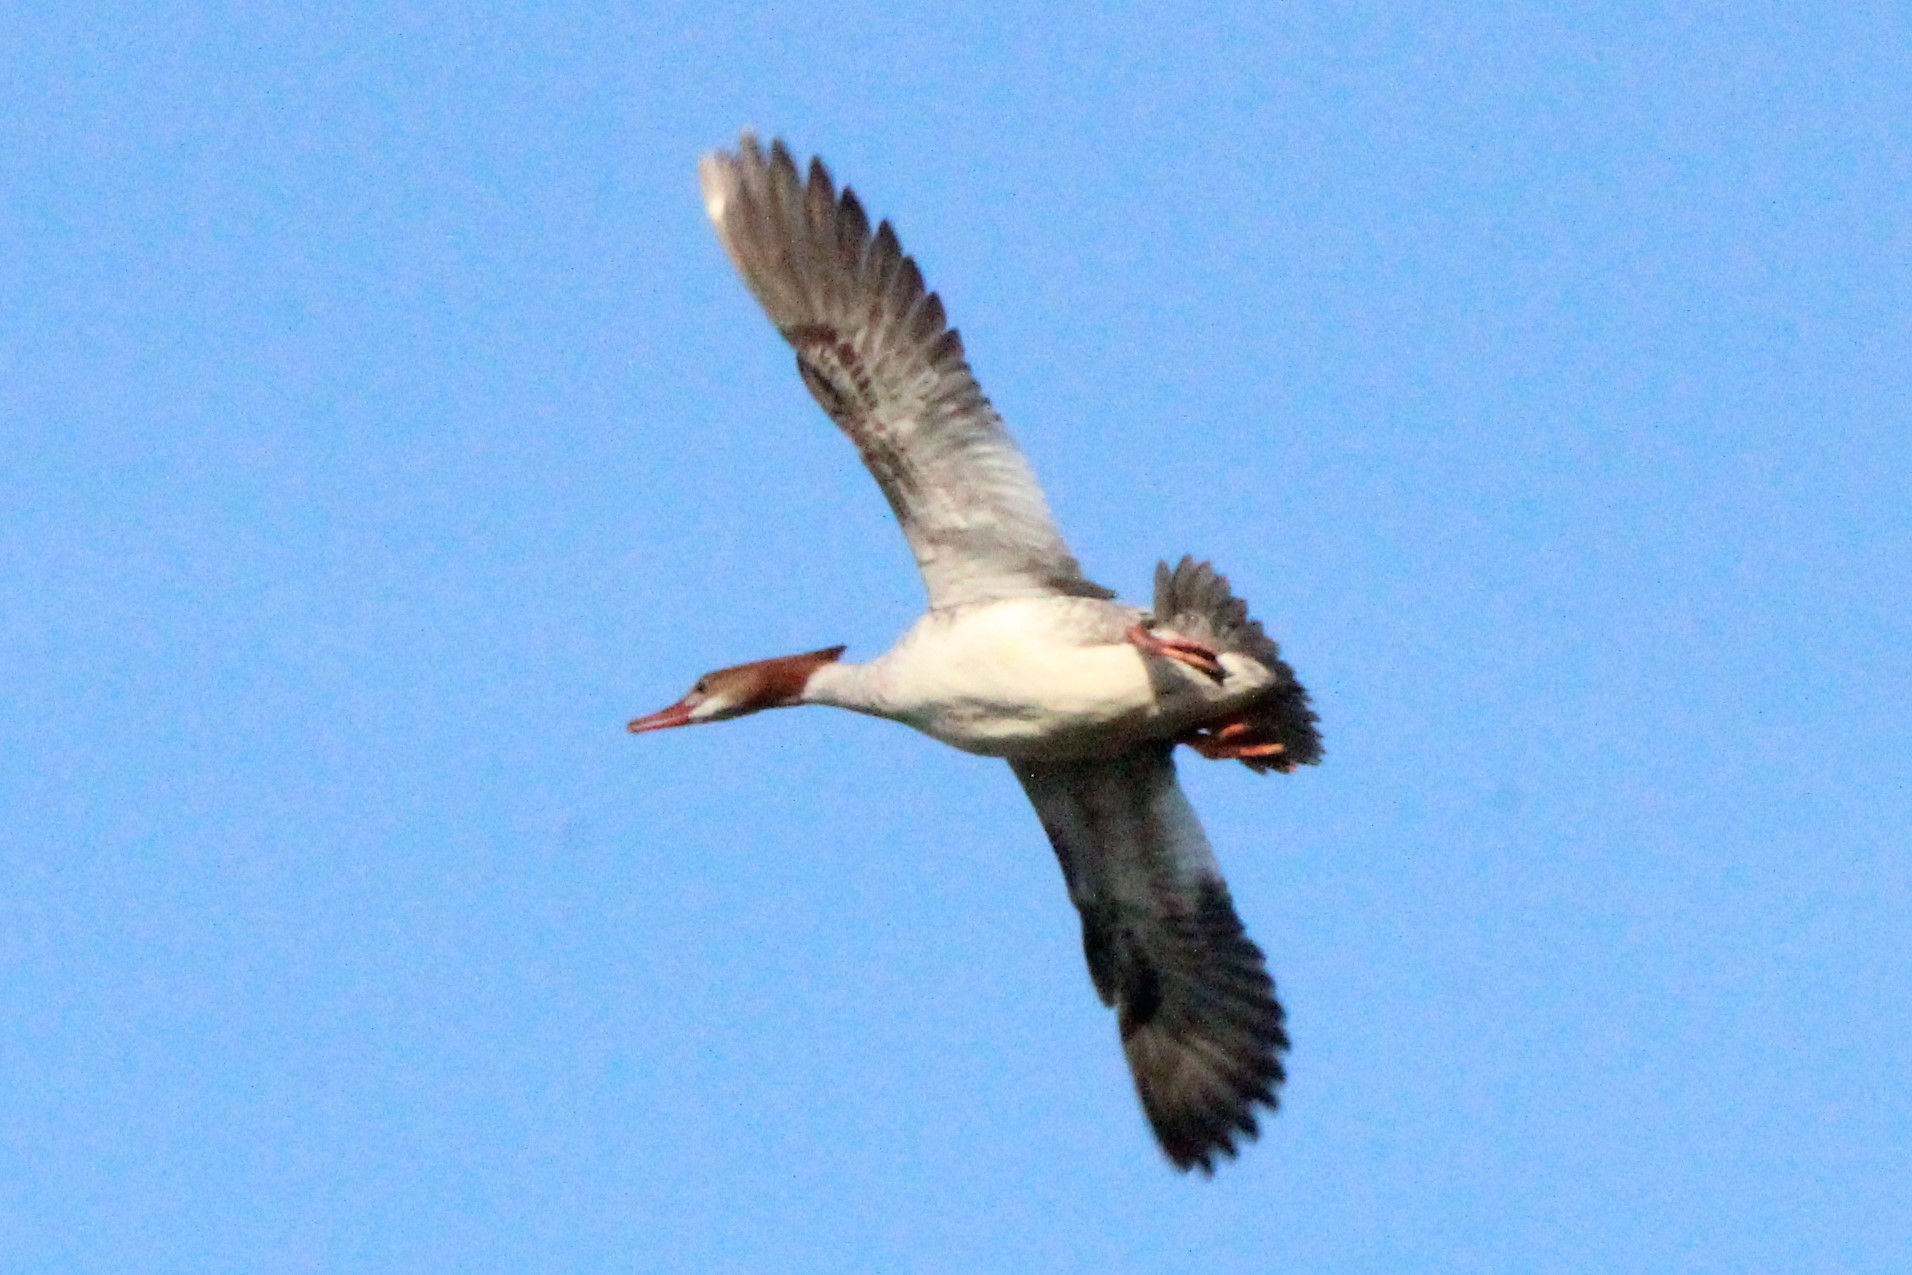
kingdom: Animalia
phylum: Chordata
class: Aves
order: Anseriformes
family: Anatidae
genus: Mergus
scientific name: Mergus merganser
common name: Common merganser
